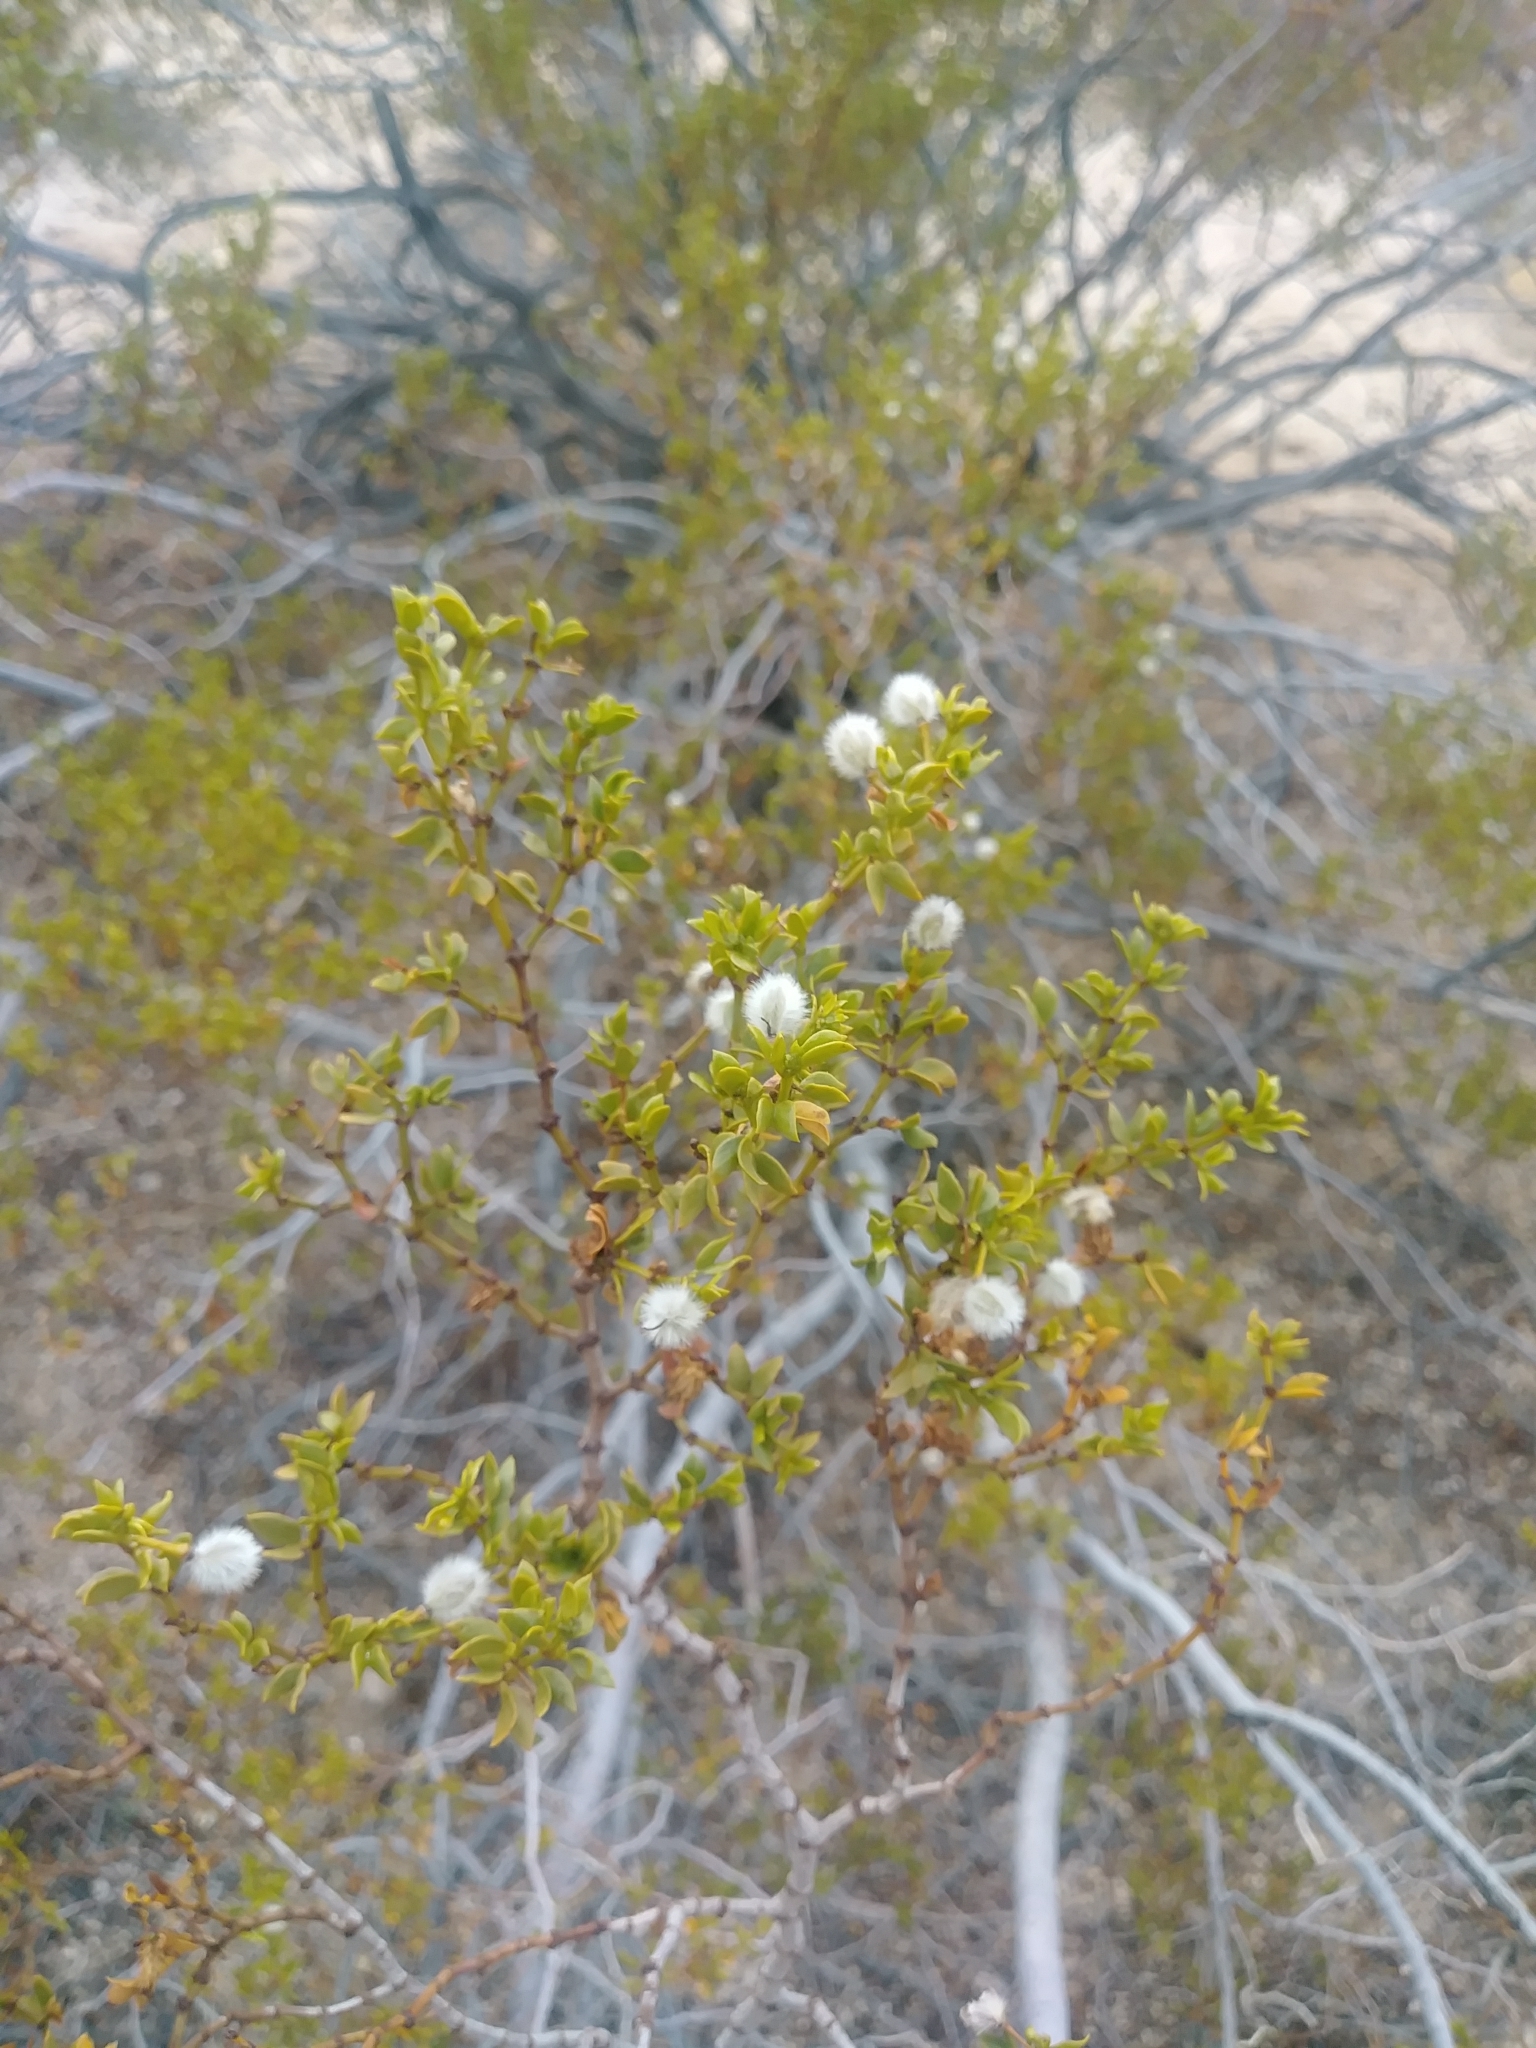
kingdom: Plantae
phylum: Tracheophyta
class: Magnoliopsida
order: Zygophyllales
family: Zygophyllaceae
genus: Larrea
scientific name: Larrea tridentata
